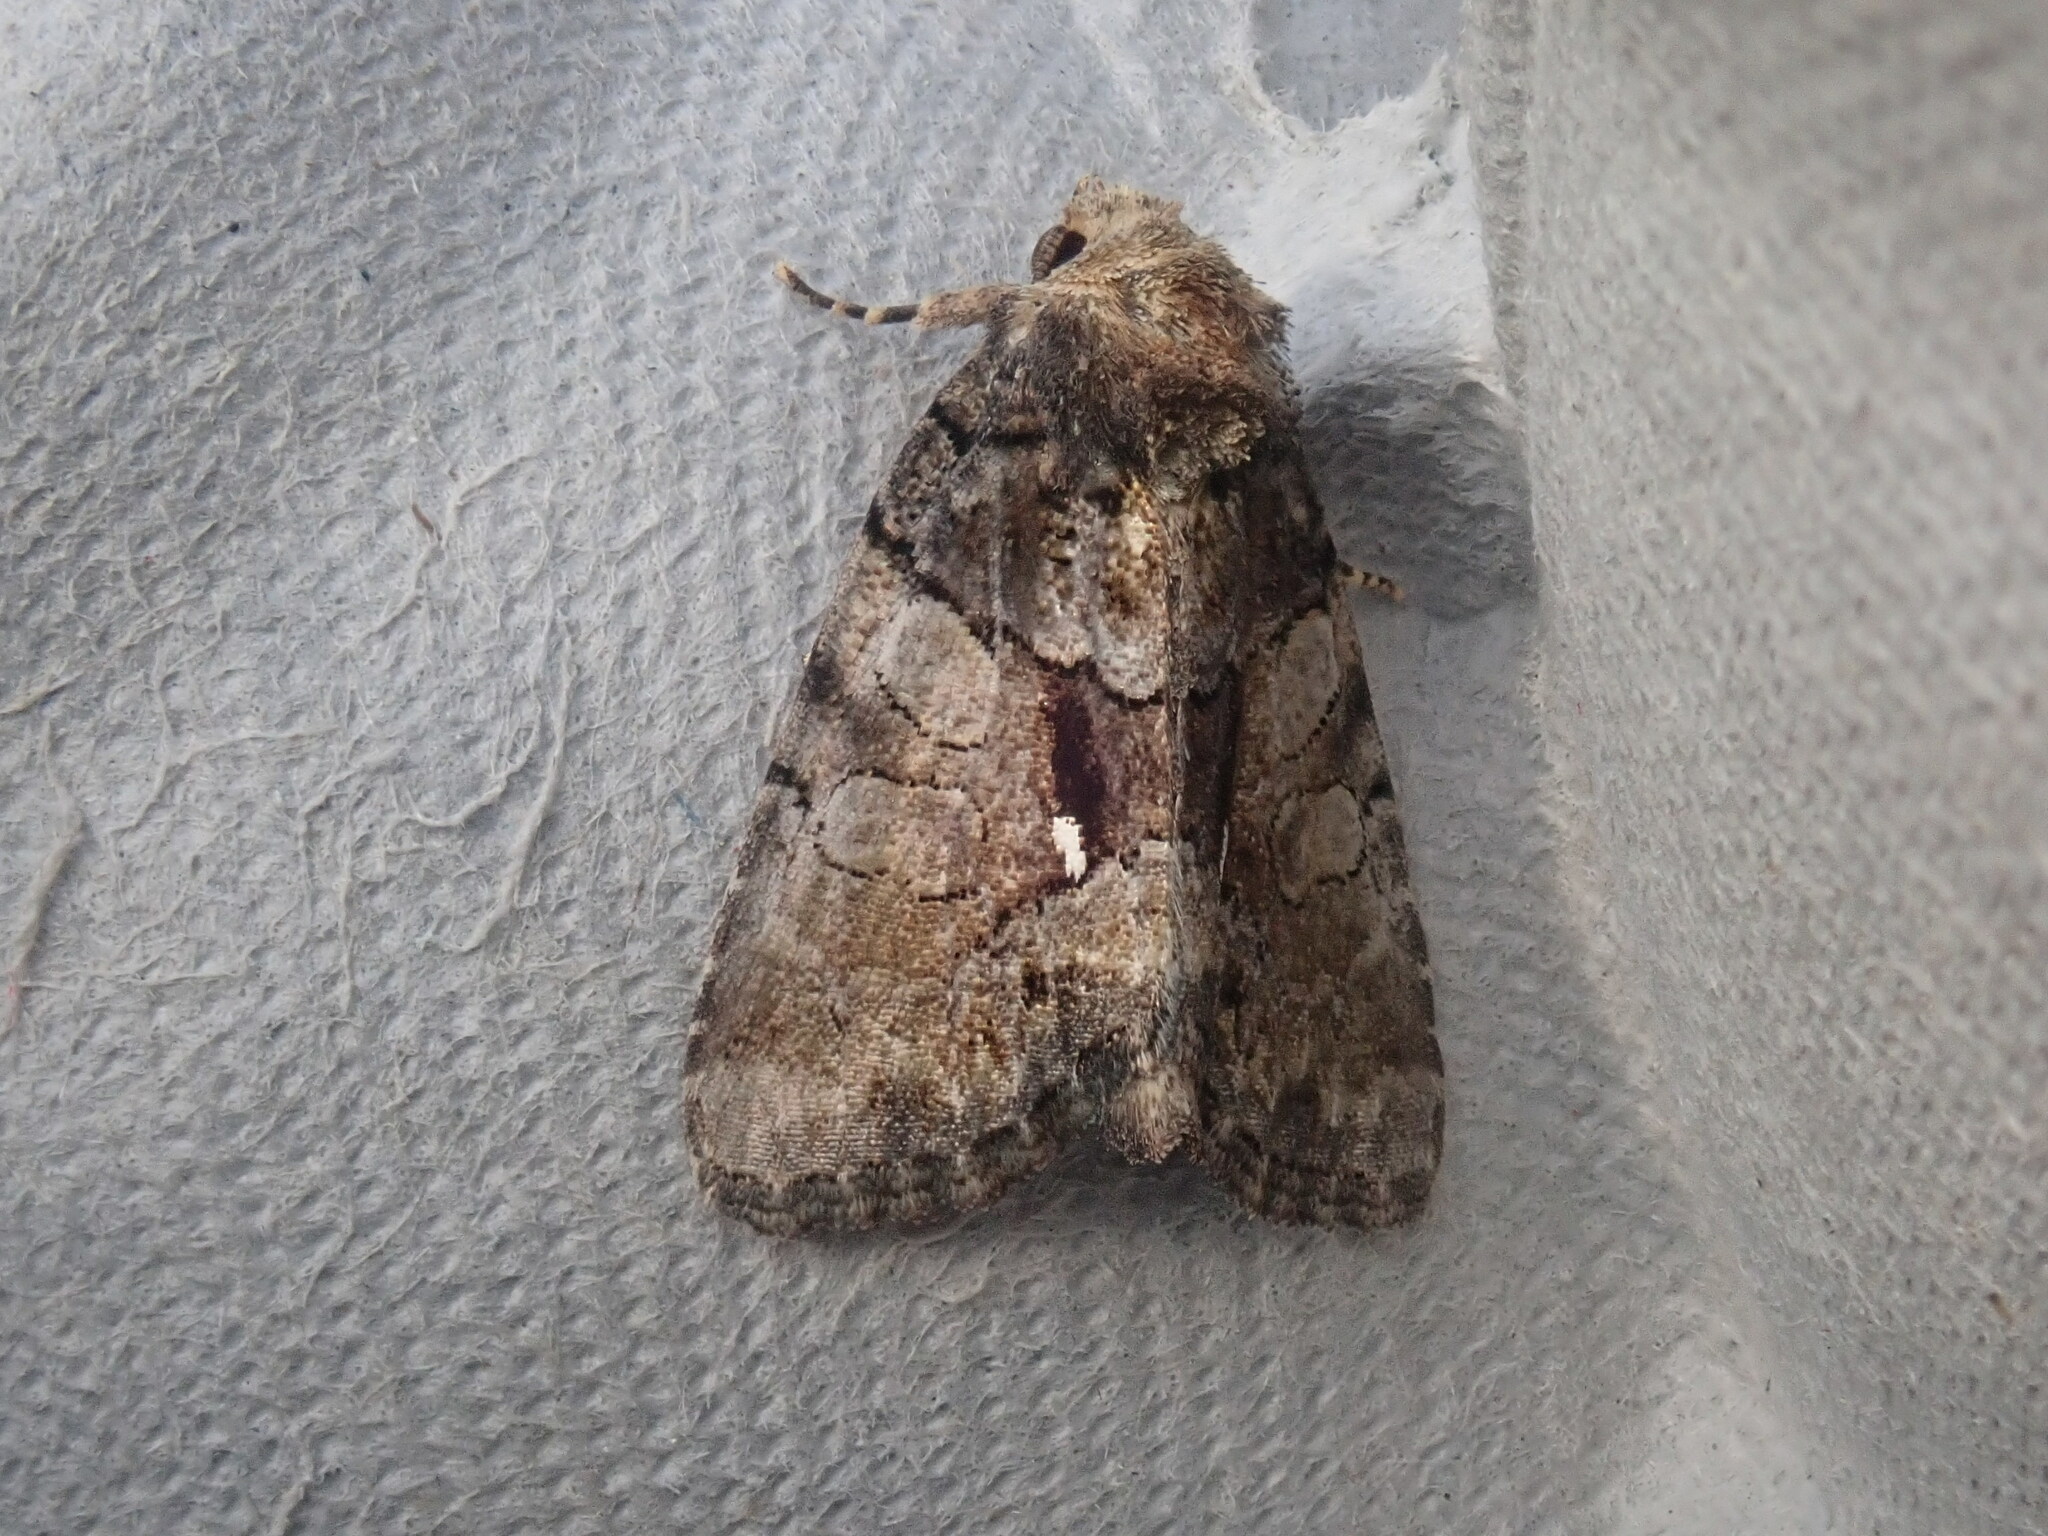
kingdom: Animalia
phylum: Arthropoda
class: Insecta
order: Lepidoptera
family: Noctuidae
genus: Chytonix
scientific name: Chytonix palliatricula
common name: Cloaked marvel
